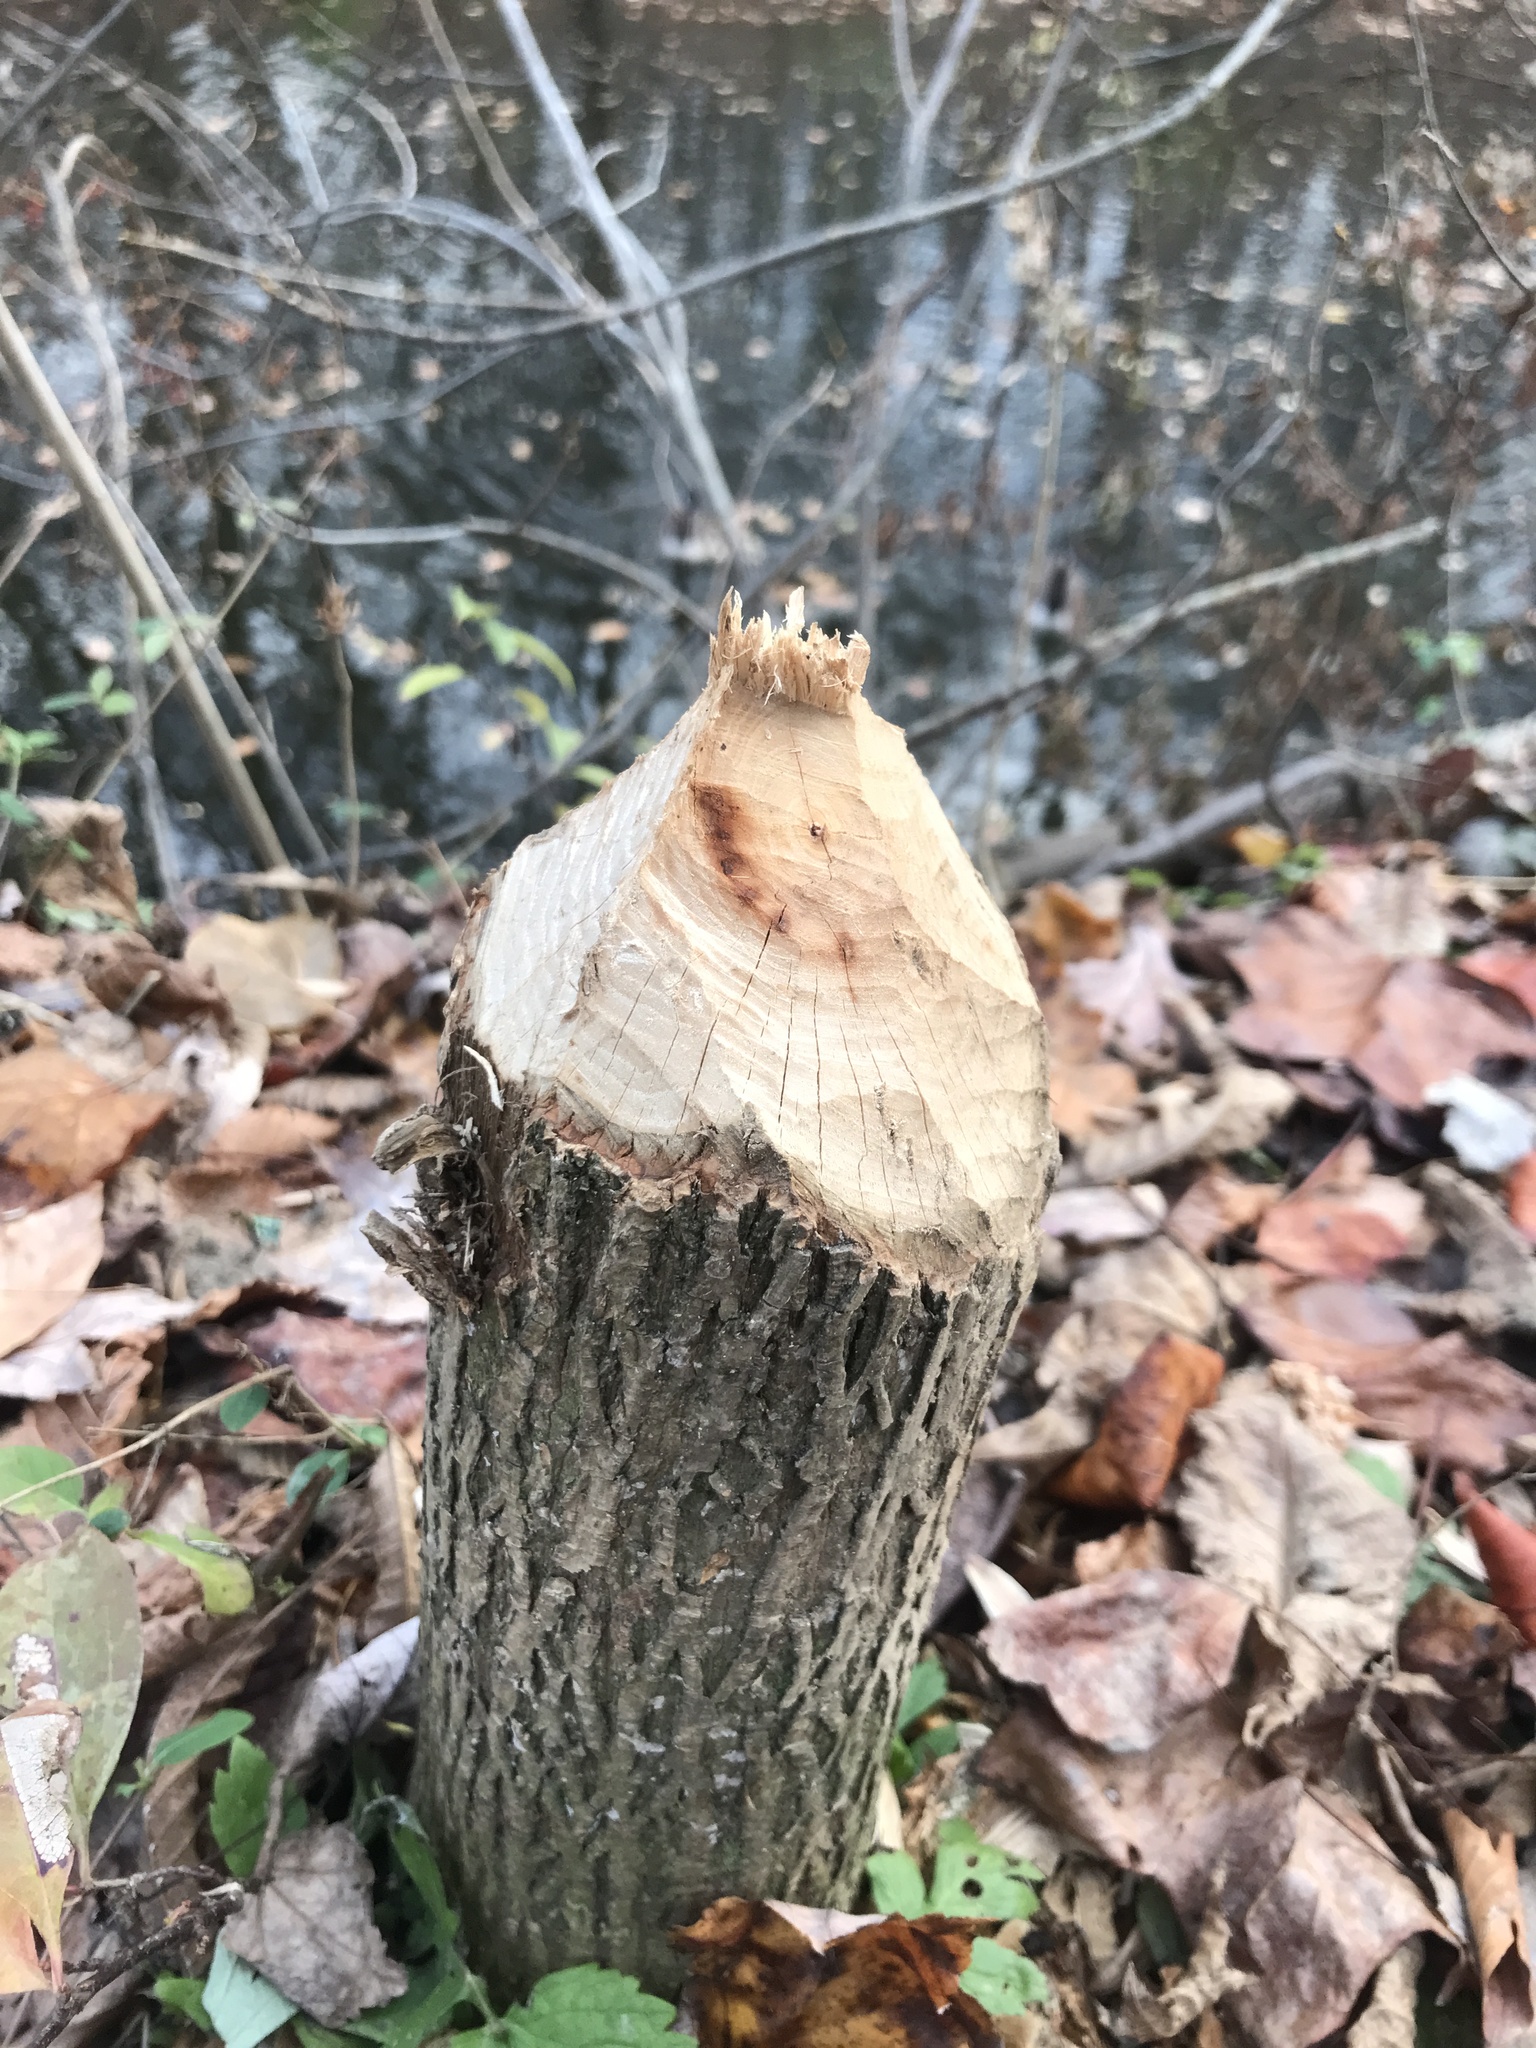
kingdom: Animalia
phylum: Chordata
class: Mammalia
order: Rodentia
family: Castoridae
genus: Castor
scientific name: Castor canadensis
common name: American beaver
